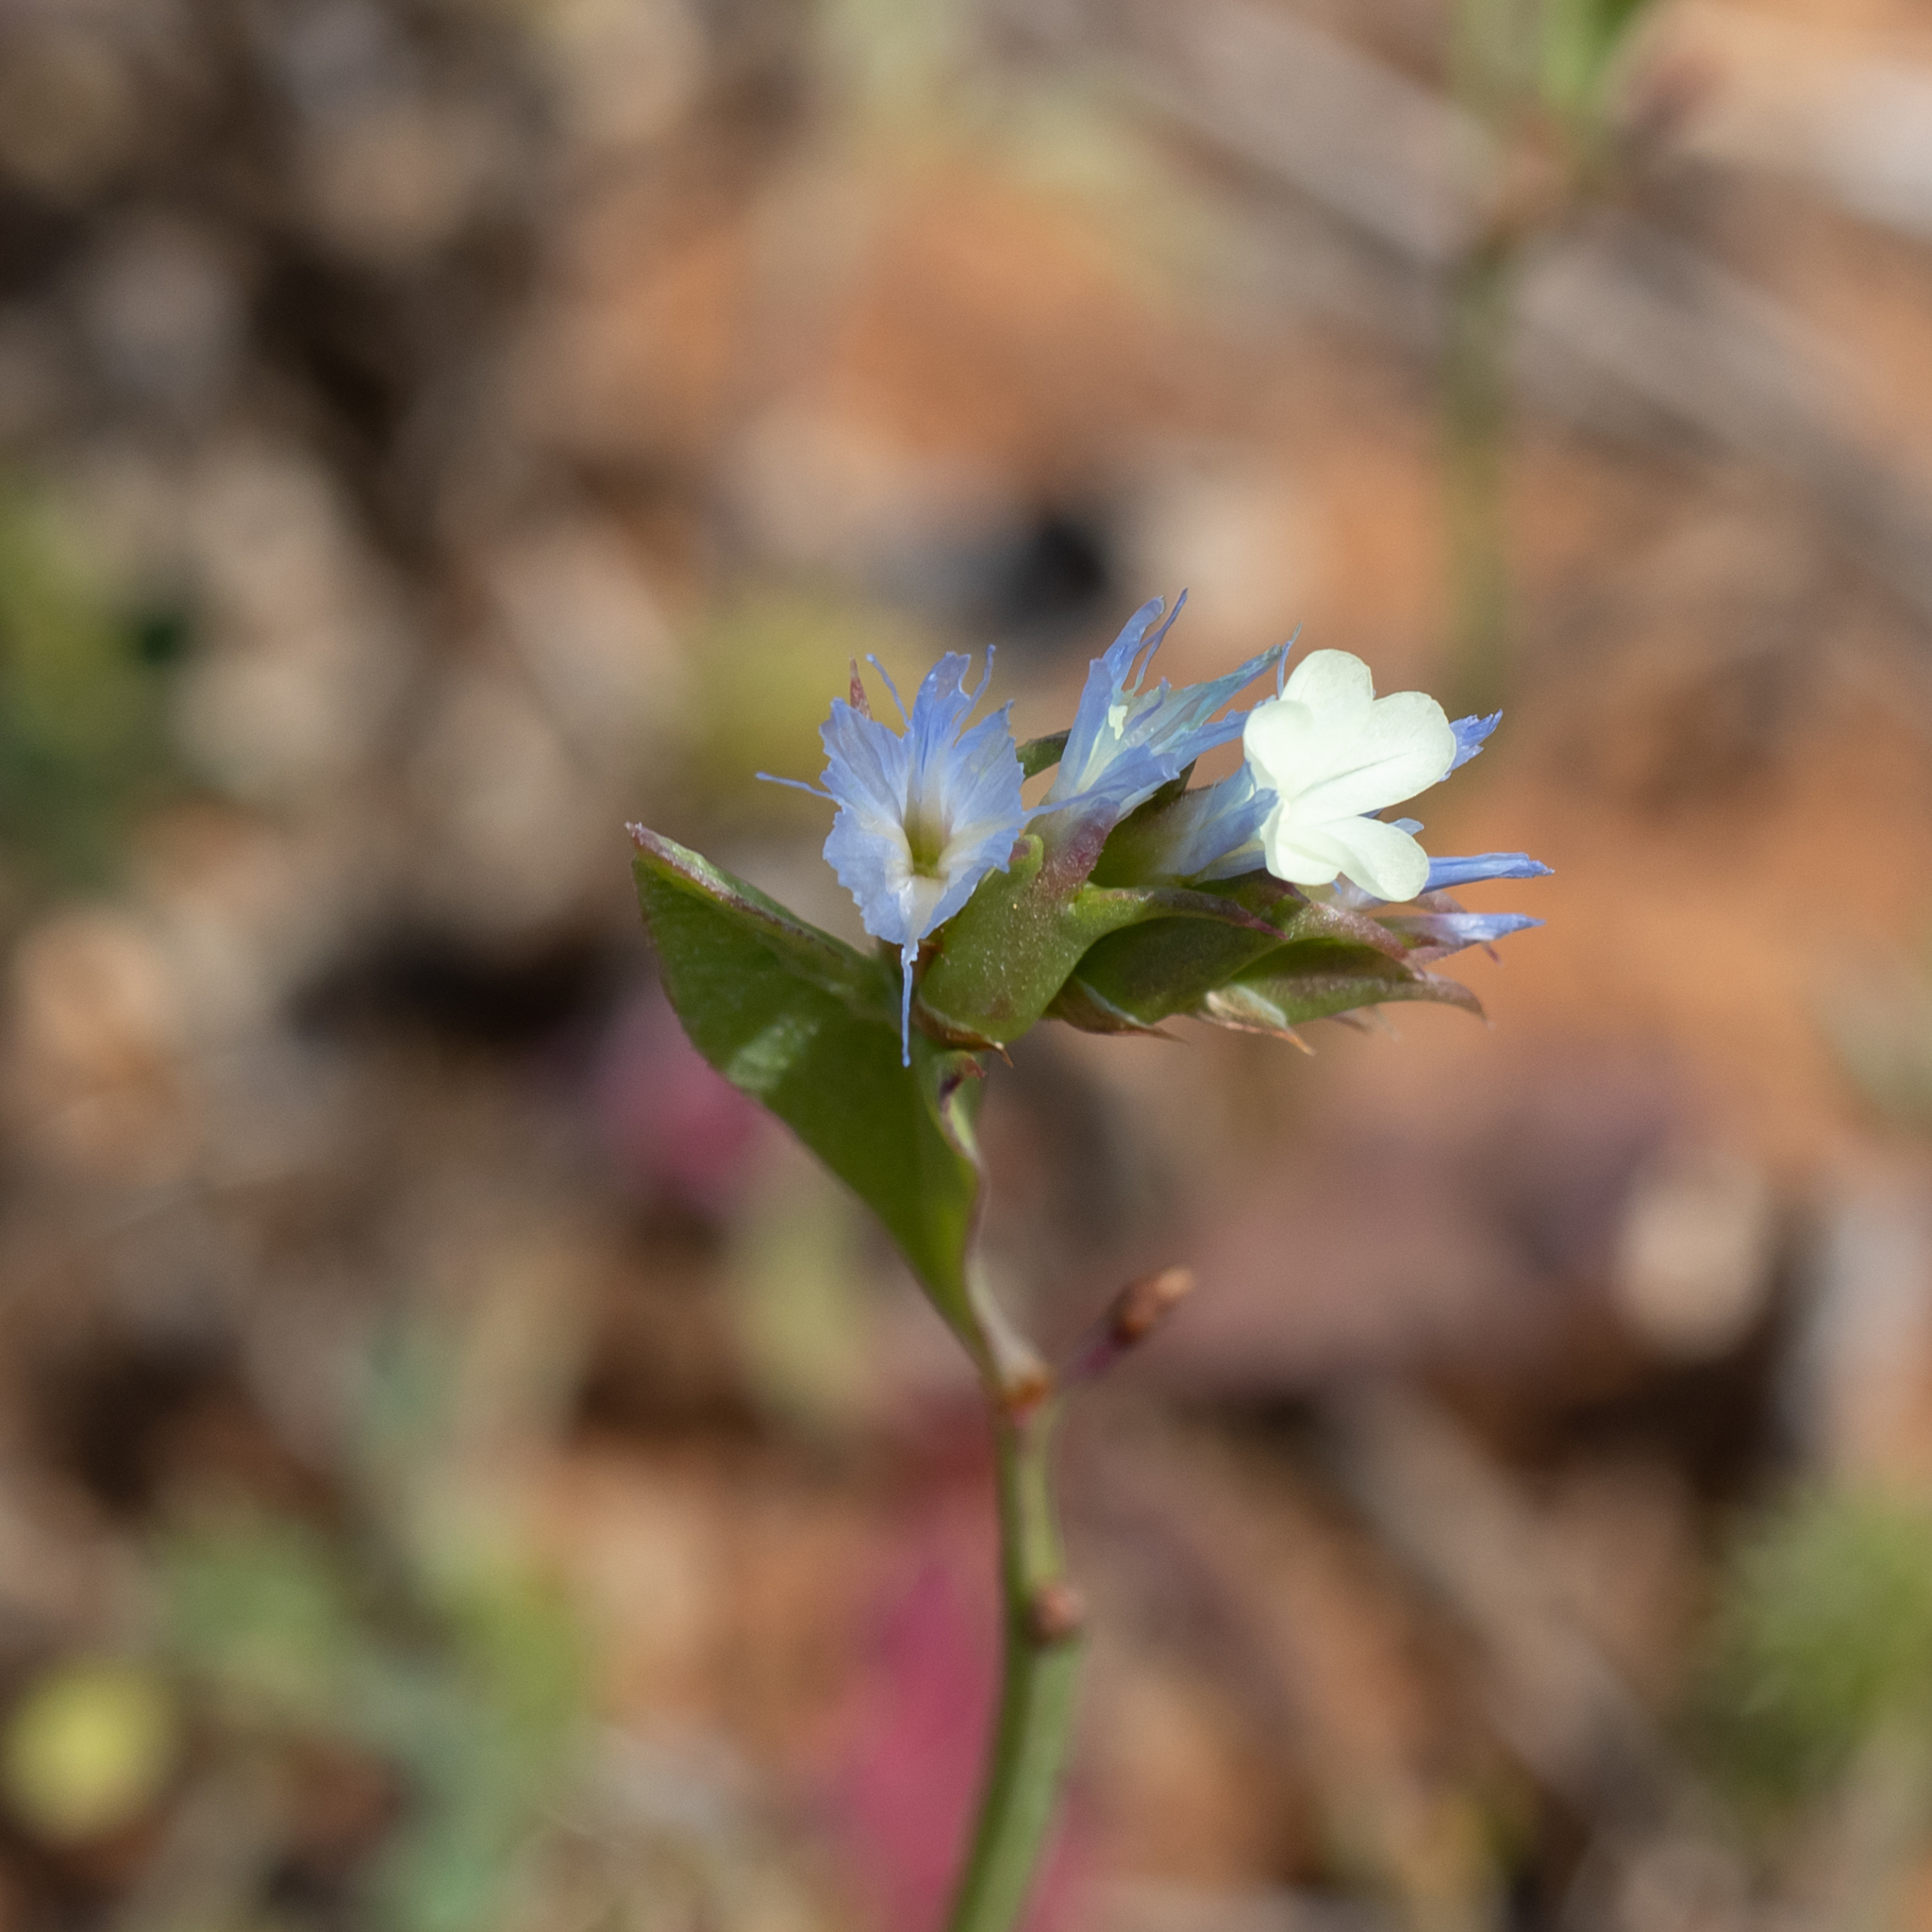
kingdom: Plantae
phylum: Tracheophyta
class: Magnoliopsida
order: Caryophyllales
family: Plumbaginaceae
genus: Limonium
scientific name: Limonium lobatum
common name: Winged sea-lavender
